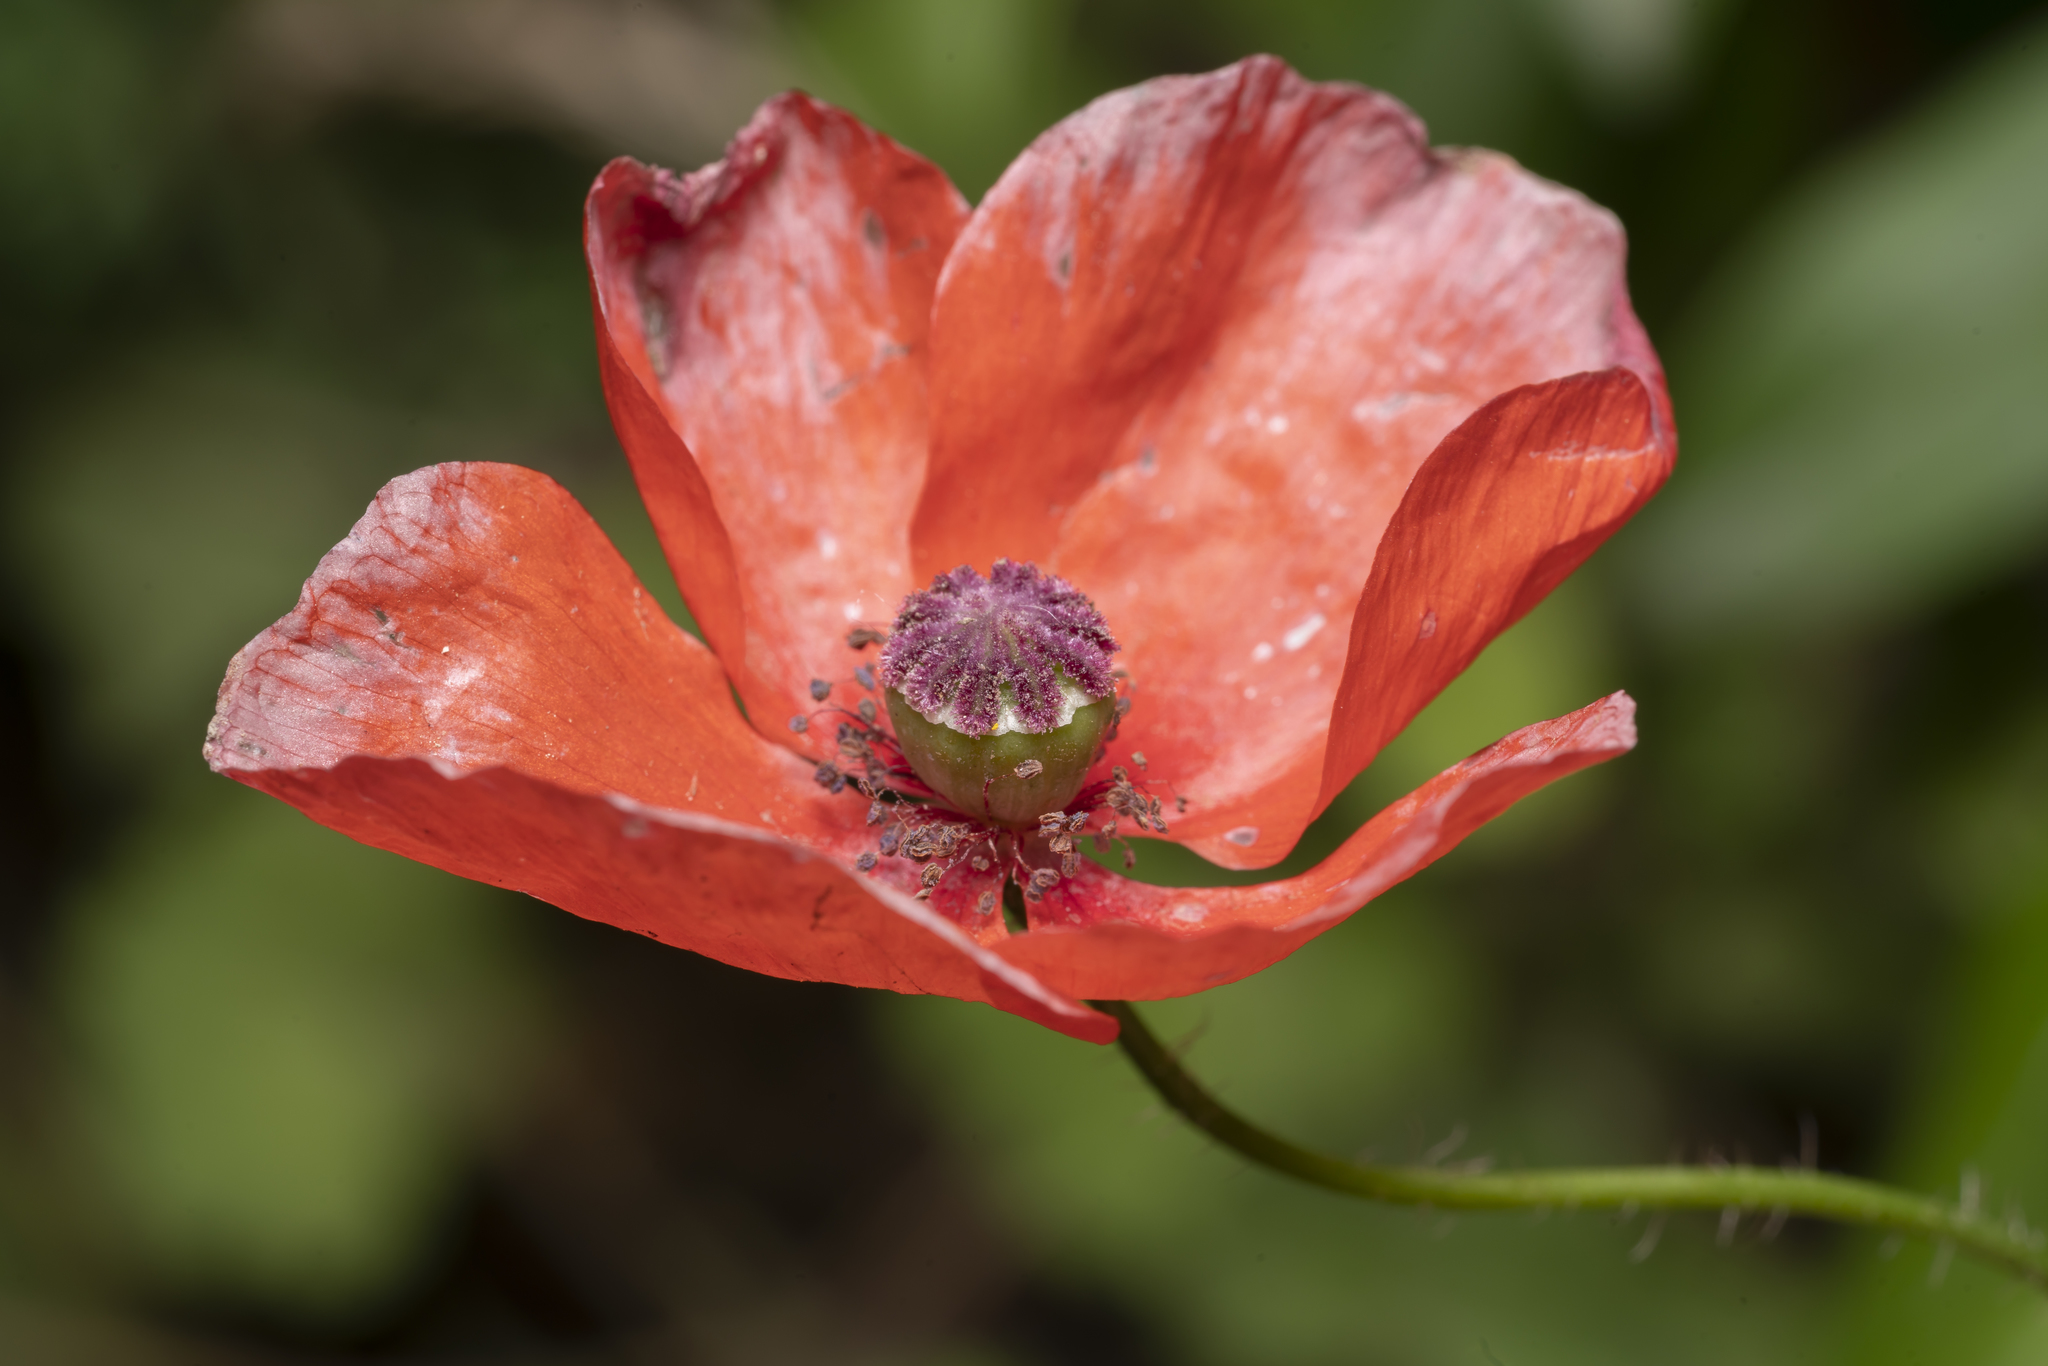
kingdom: Plantae
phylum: Tracheophyta
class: Magnoliopsida
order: Ranunculales
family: Papaveraceae
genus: Papaver
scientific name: Papaver rhoeas
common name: Corn poppy
